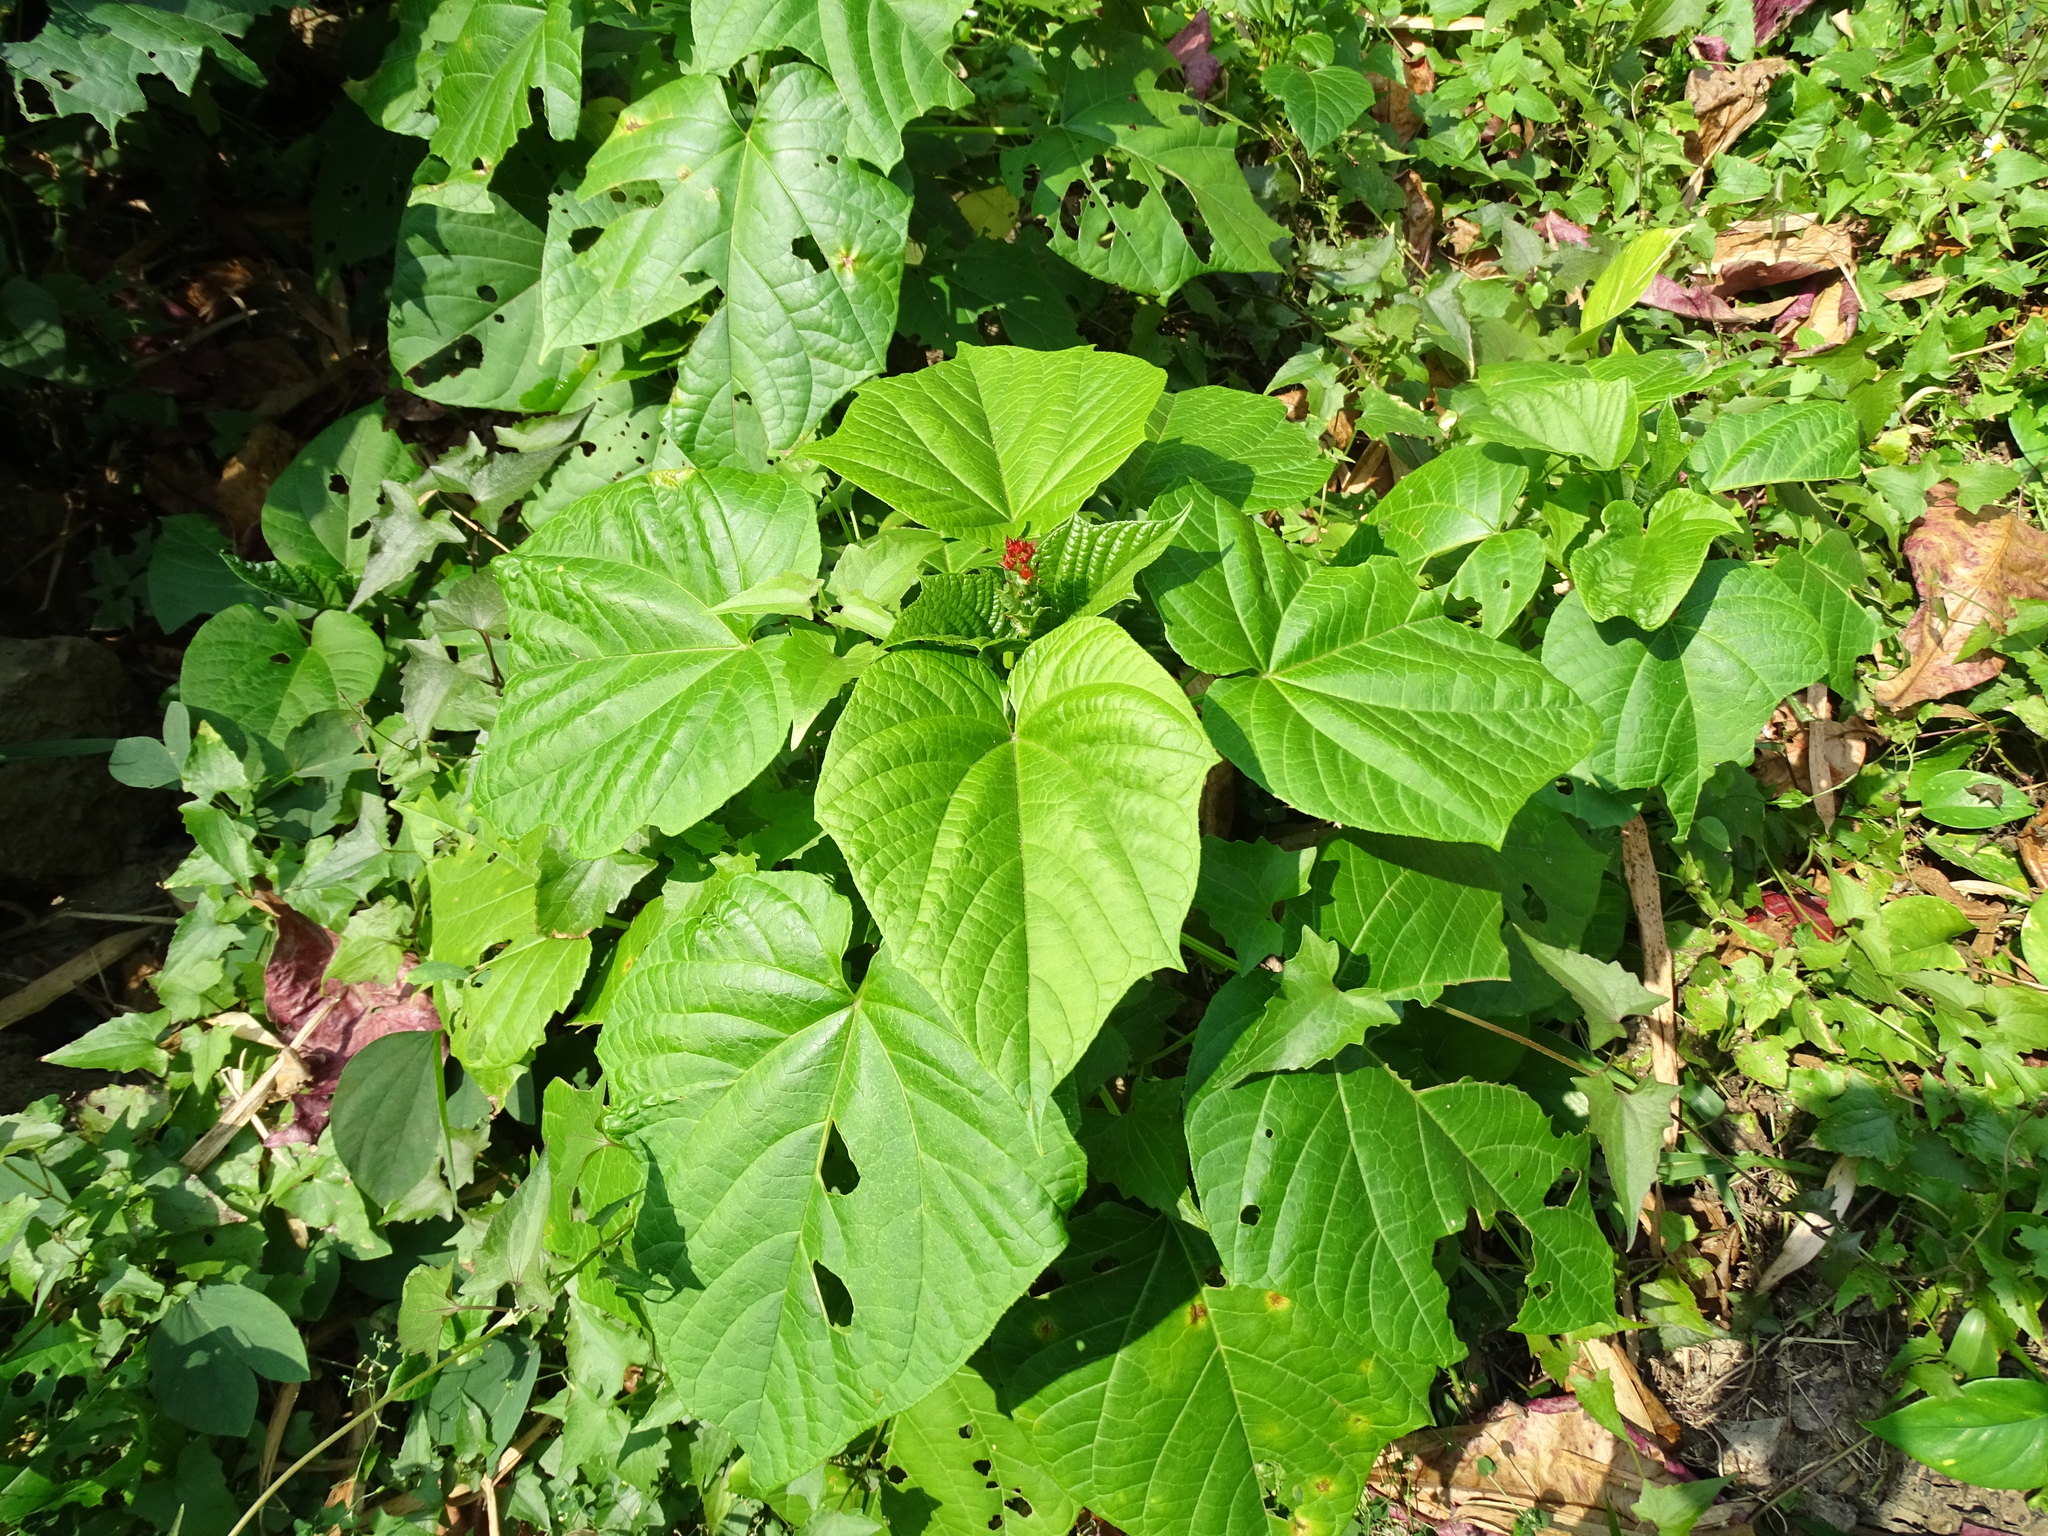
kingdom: Plantae
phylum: Tracheophyta
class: Magnoliopsida
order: Lamiales
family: Lamiaceae
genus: Clerodendrum
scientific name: Clerodendrum japonicum
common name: Japanese glorybower
